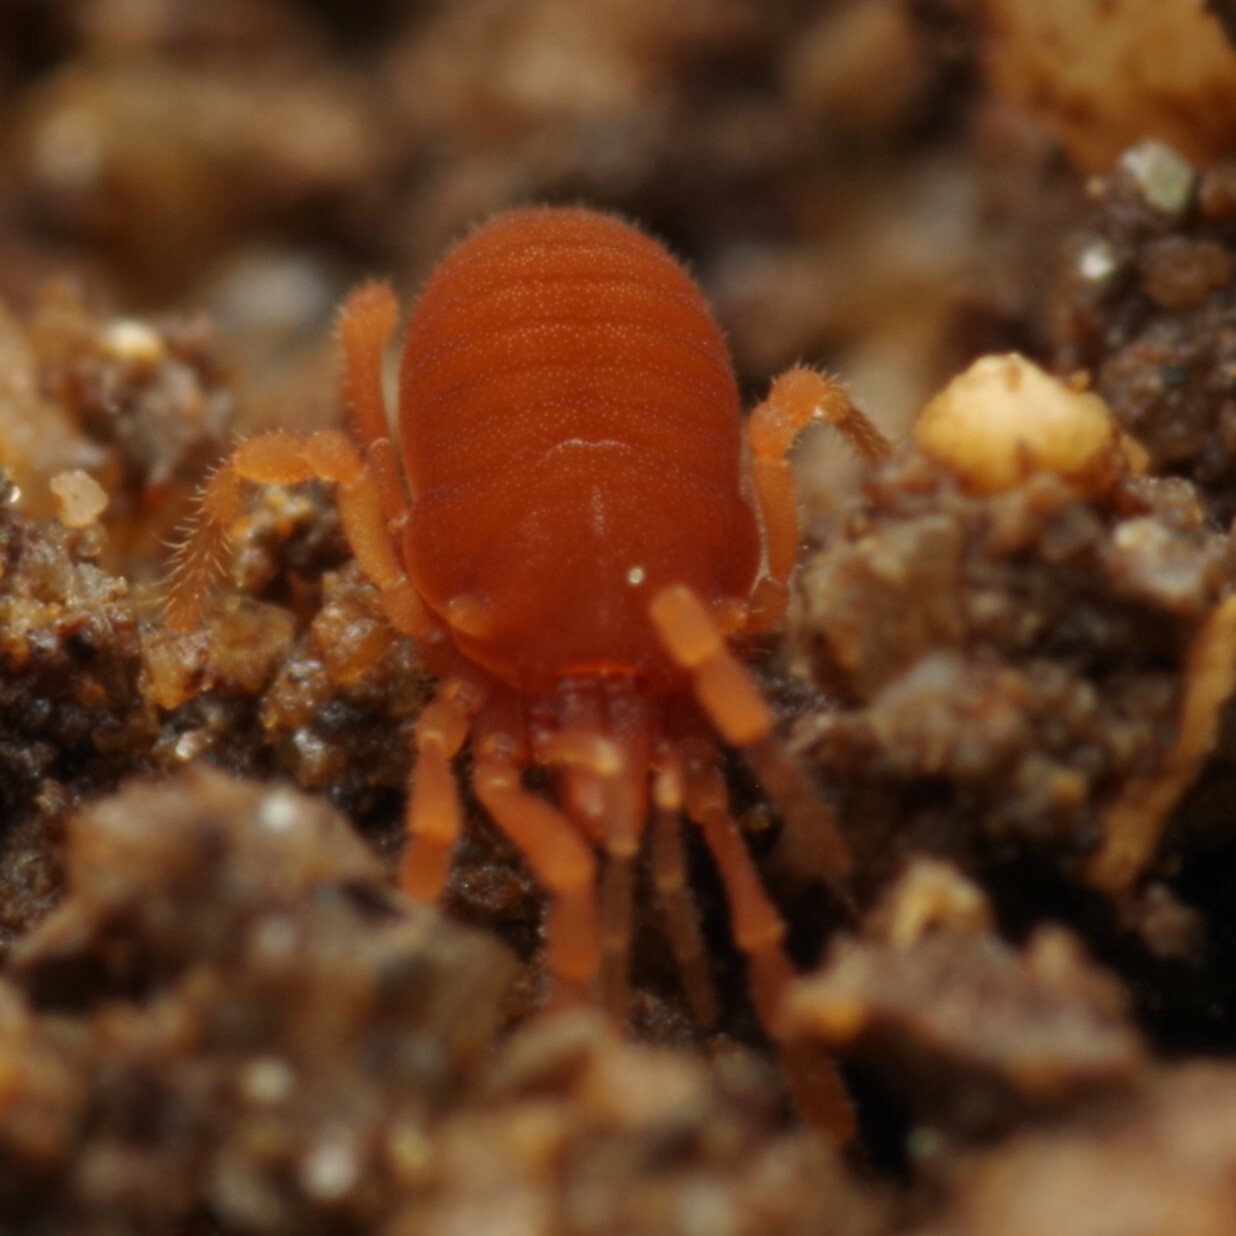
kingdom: Animalia
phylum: Arthropoda
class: Arachnida
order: Opiliones
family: Sironidae
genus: Siro
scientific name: Siro rubens
